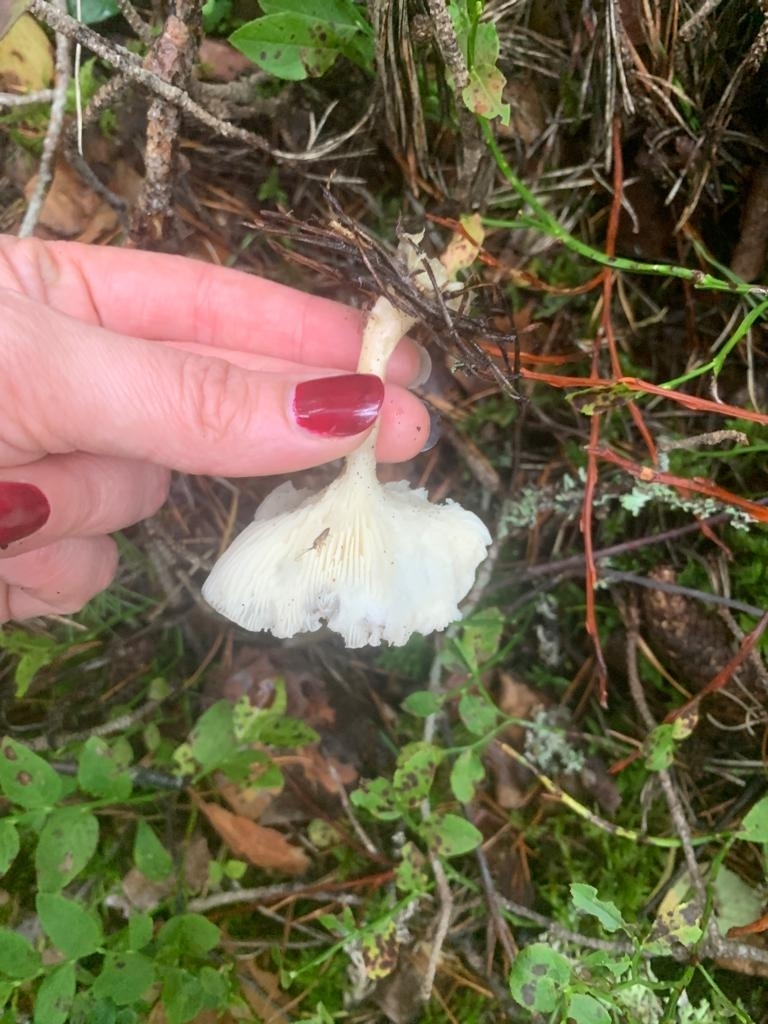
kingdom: Fungi
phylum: Basidiomycota
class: Agaricomycetes
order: Agaricales
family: Hygrophoraceae
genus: Ampulloclitocybe
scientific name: Ampulloclitocybe clavipes
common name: Club foot
